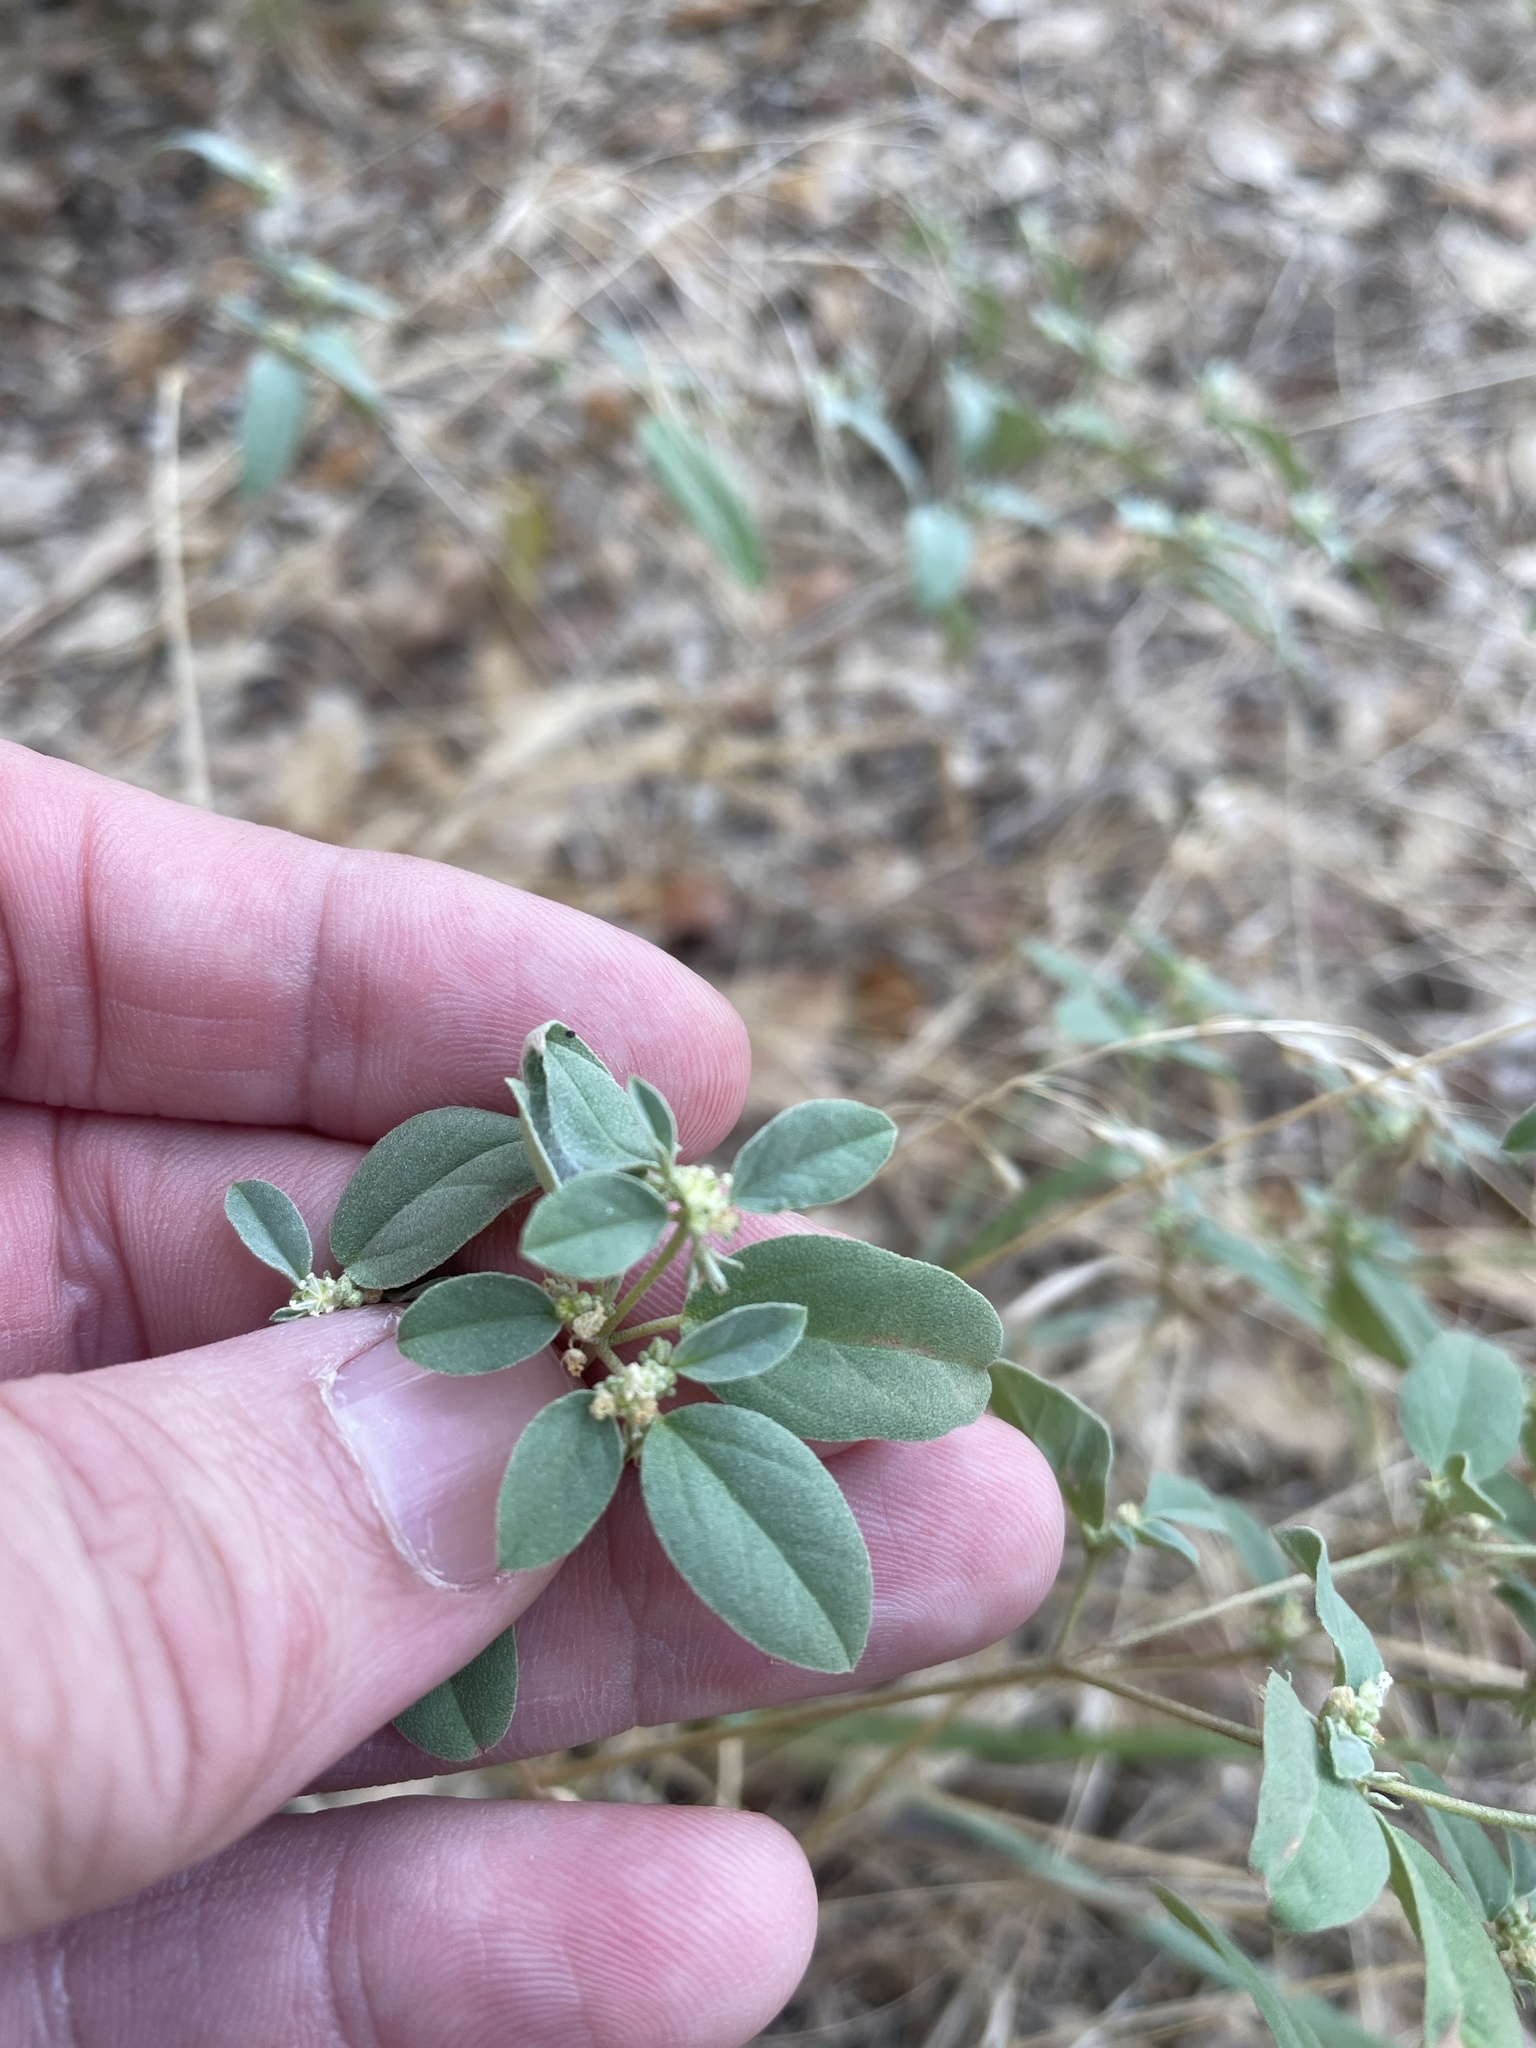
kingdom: Plantae
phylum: Tracheophyta
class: Magnoliopsida
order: Malpighiales
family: Euphorbiaceae
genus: Croton
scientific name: Croton monanthogynus
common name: One-seed croton
